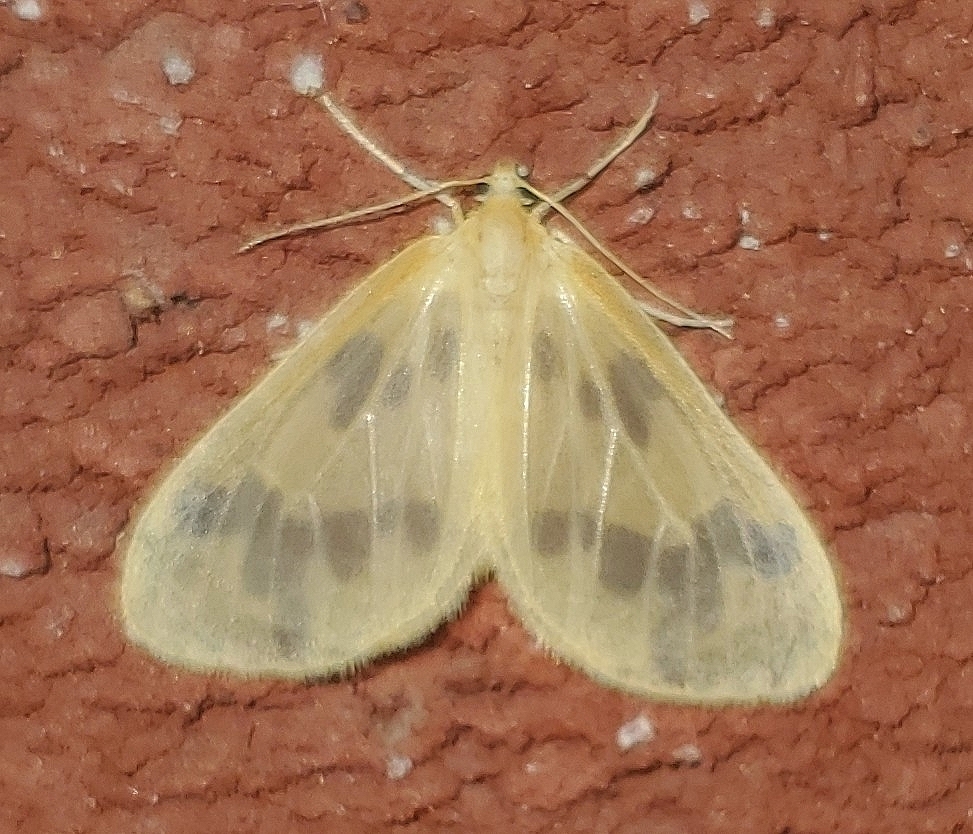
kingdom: Animalia
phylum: Arthropoda
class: Insecta
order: Lepidoptera
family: Geometridae
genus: Eubaphe
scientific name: Eubaphe mendica
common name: Beggar
